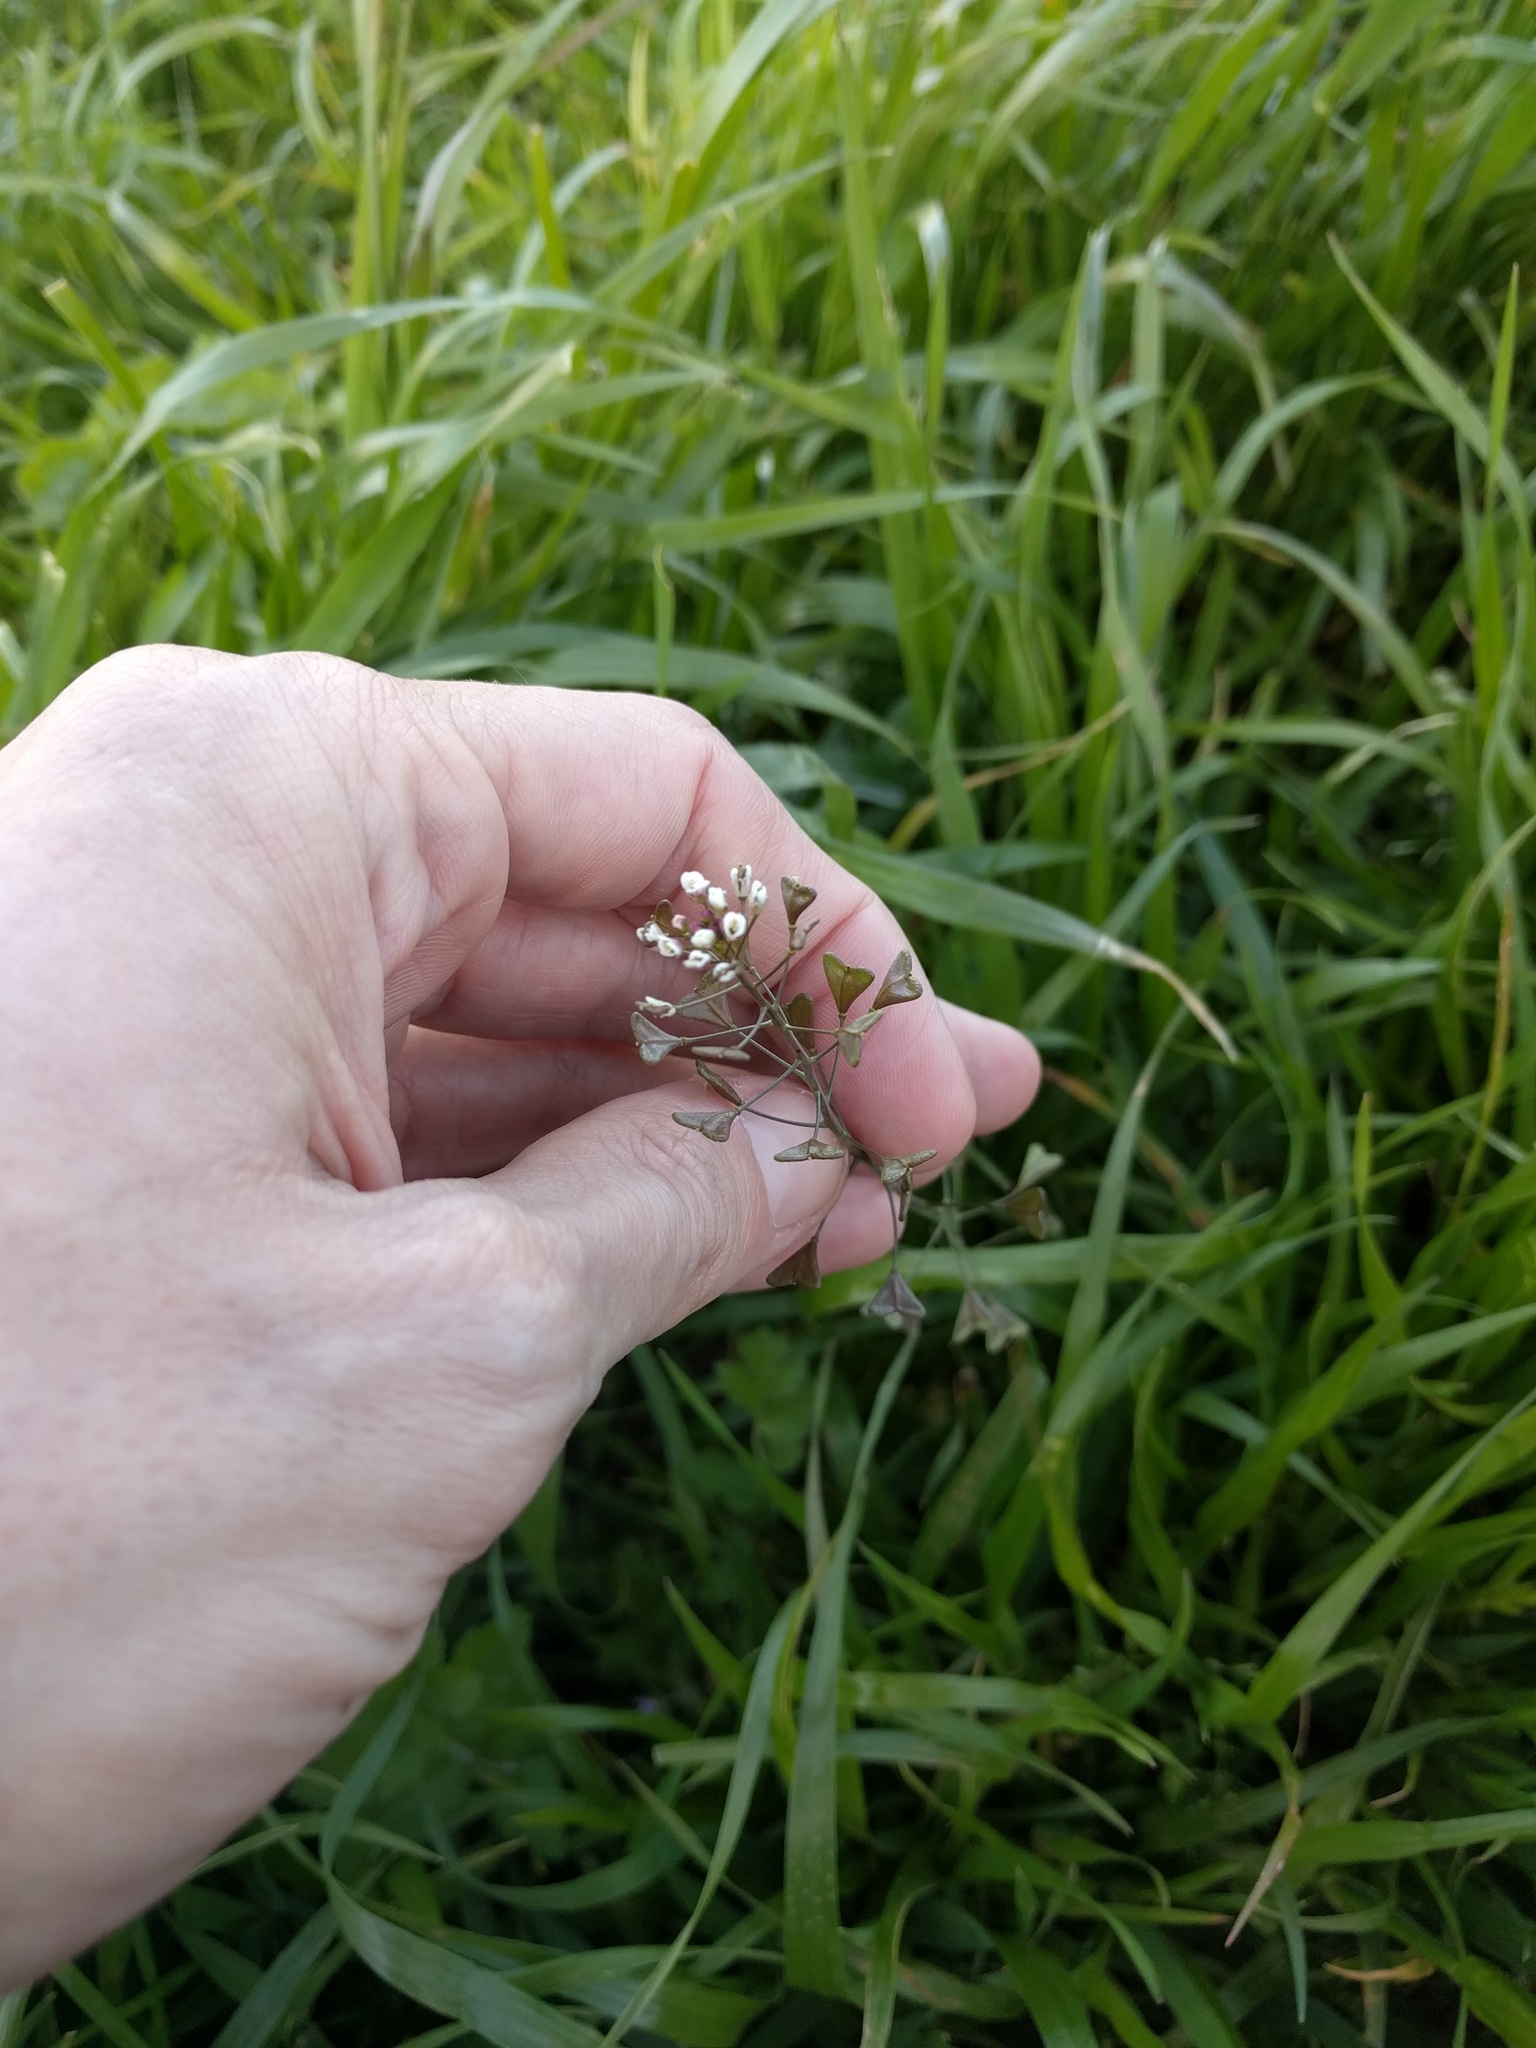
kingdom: Plantae
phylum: Tracheophyta
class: Magnoliopsida
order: Brassicales
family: Brassicaceae
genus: Capsella
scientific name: Capsella bursa-pastoris
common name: Shepherd's purse
